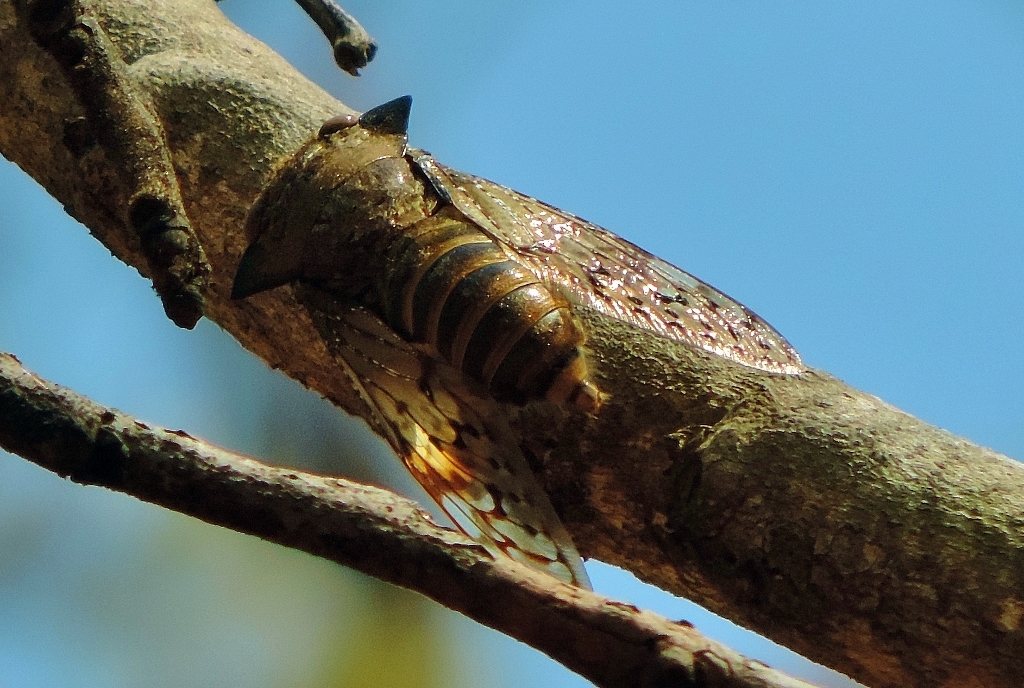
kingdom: Animalia
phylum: Arthropoda
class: Insecta
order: Hemiptera
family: Cicadidae
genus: Ioba
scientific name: Ioba leopardina
